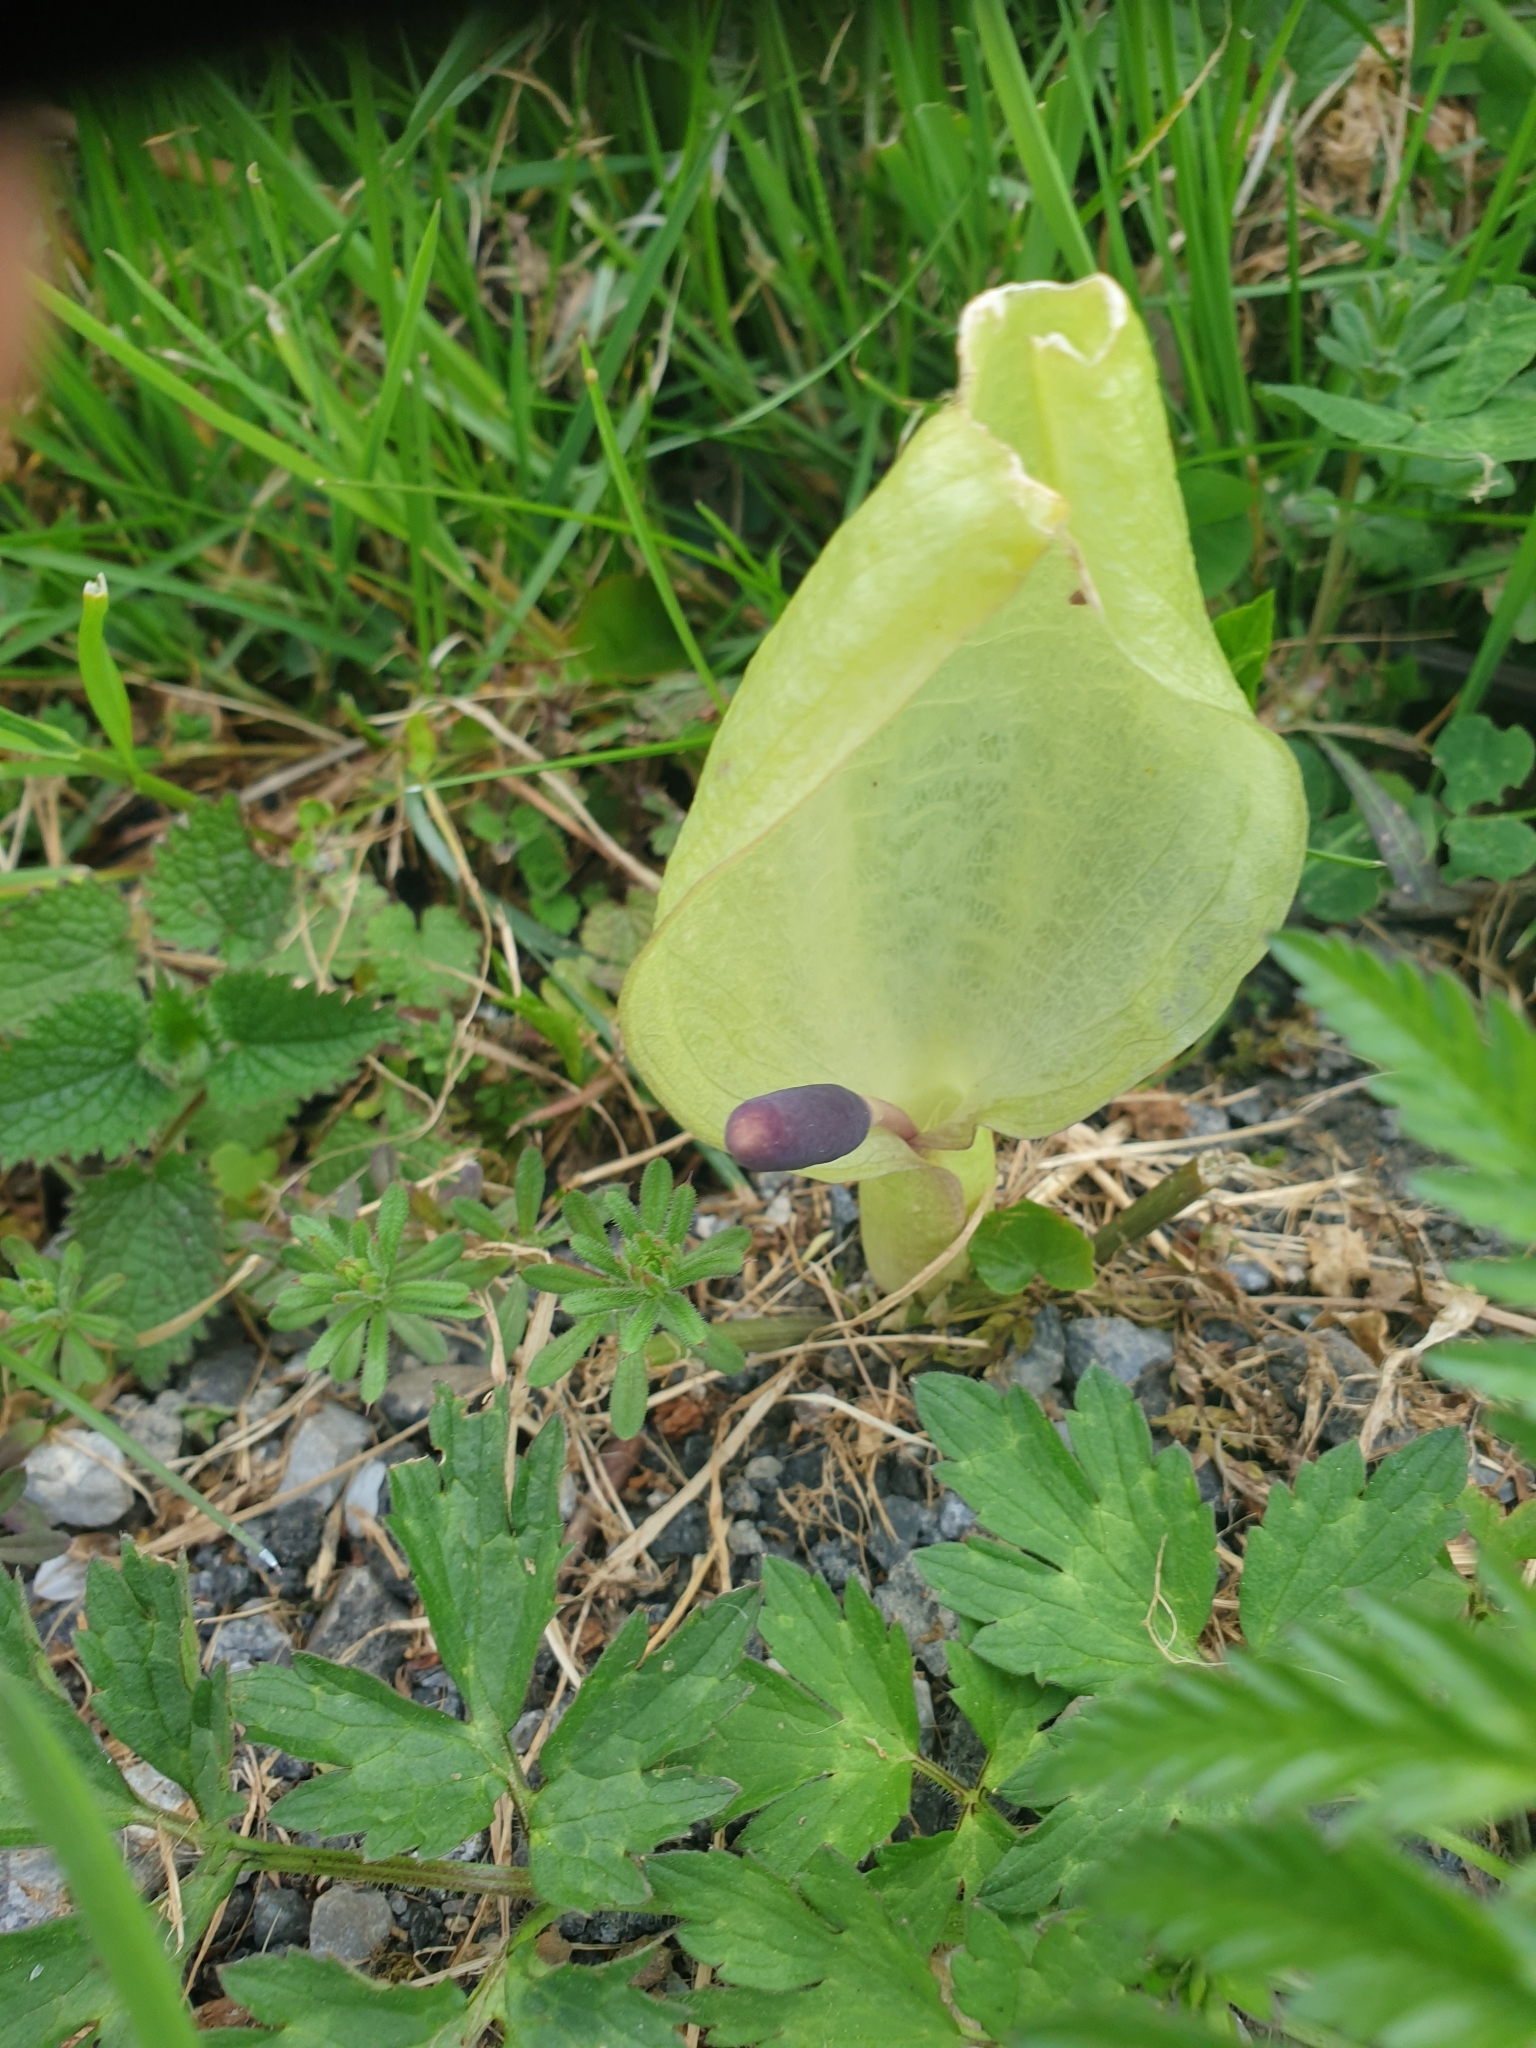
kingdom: Plantae
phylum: Tracheophyta
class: Liliopsida
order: Alismatales
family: Araceae
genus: Arum
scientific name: Arum maculatum
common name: Lords-and-ladies
